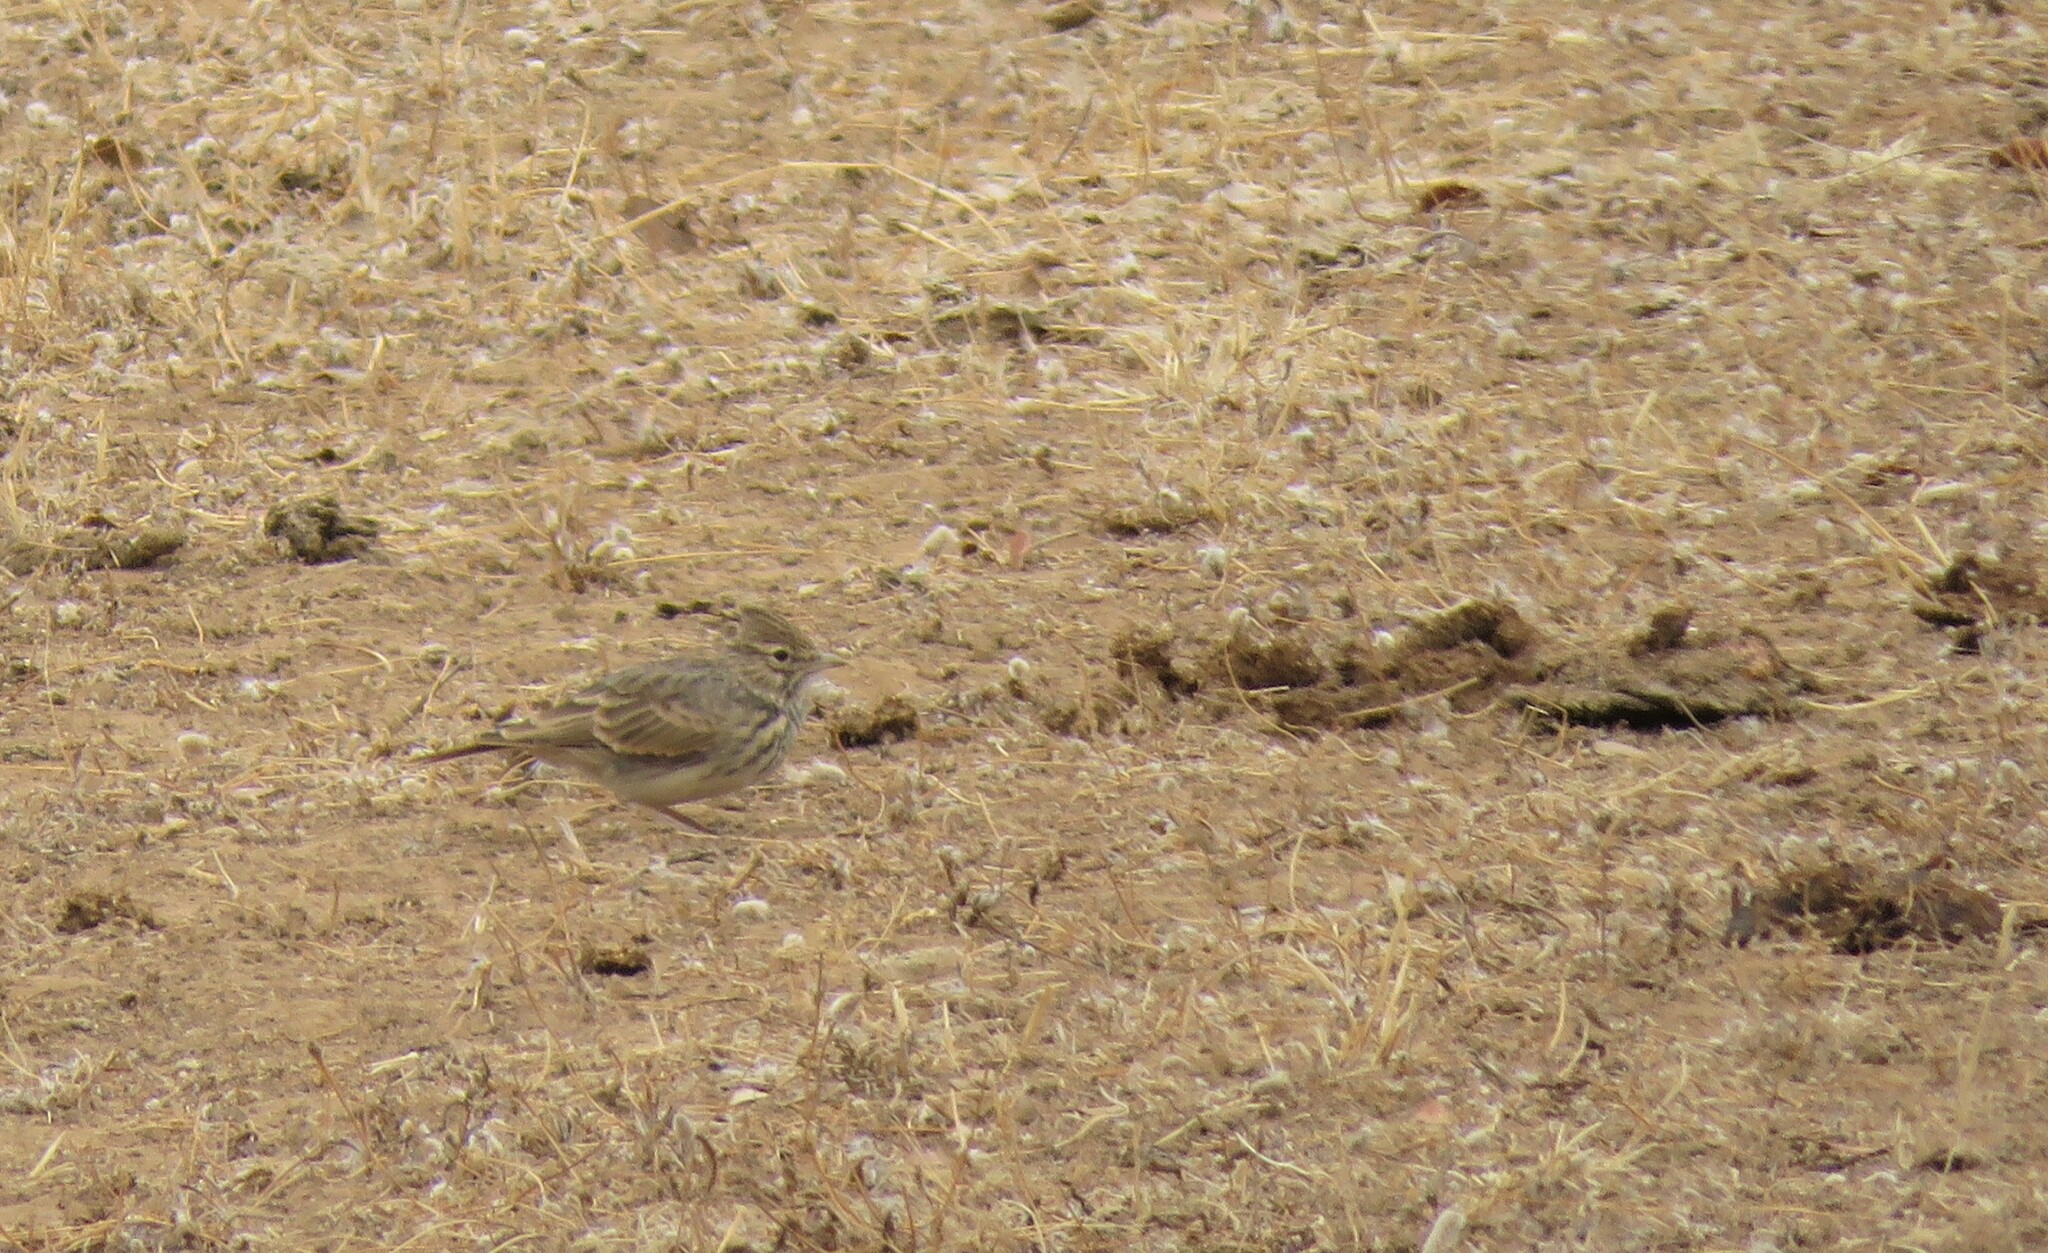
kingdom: Animalia
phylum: Chordata
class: Aves
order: Passeriformes
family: Alaudidae
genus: Galerida
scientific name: Galerida theklae
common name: Thekla lark
